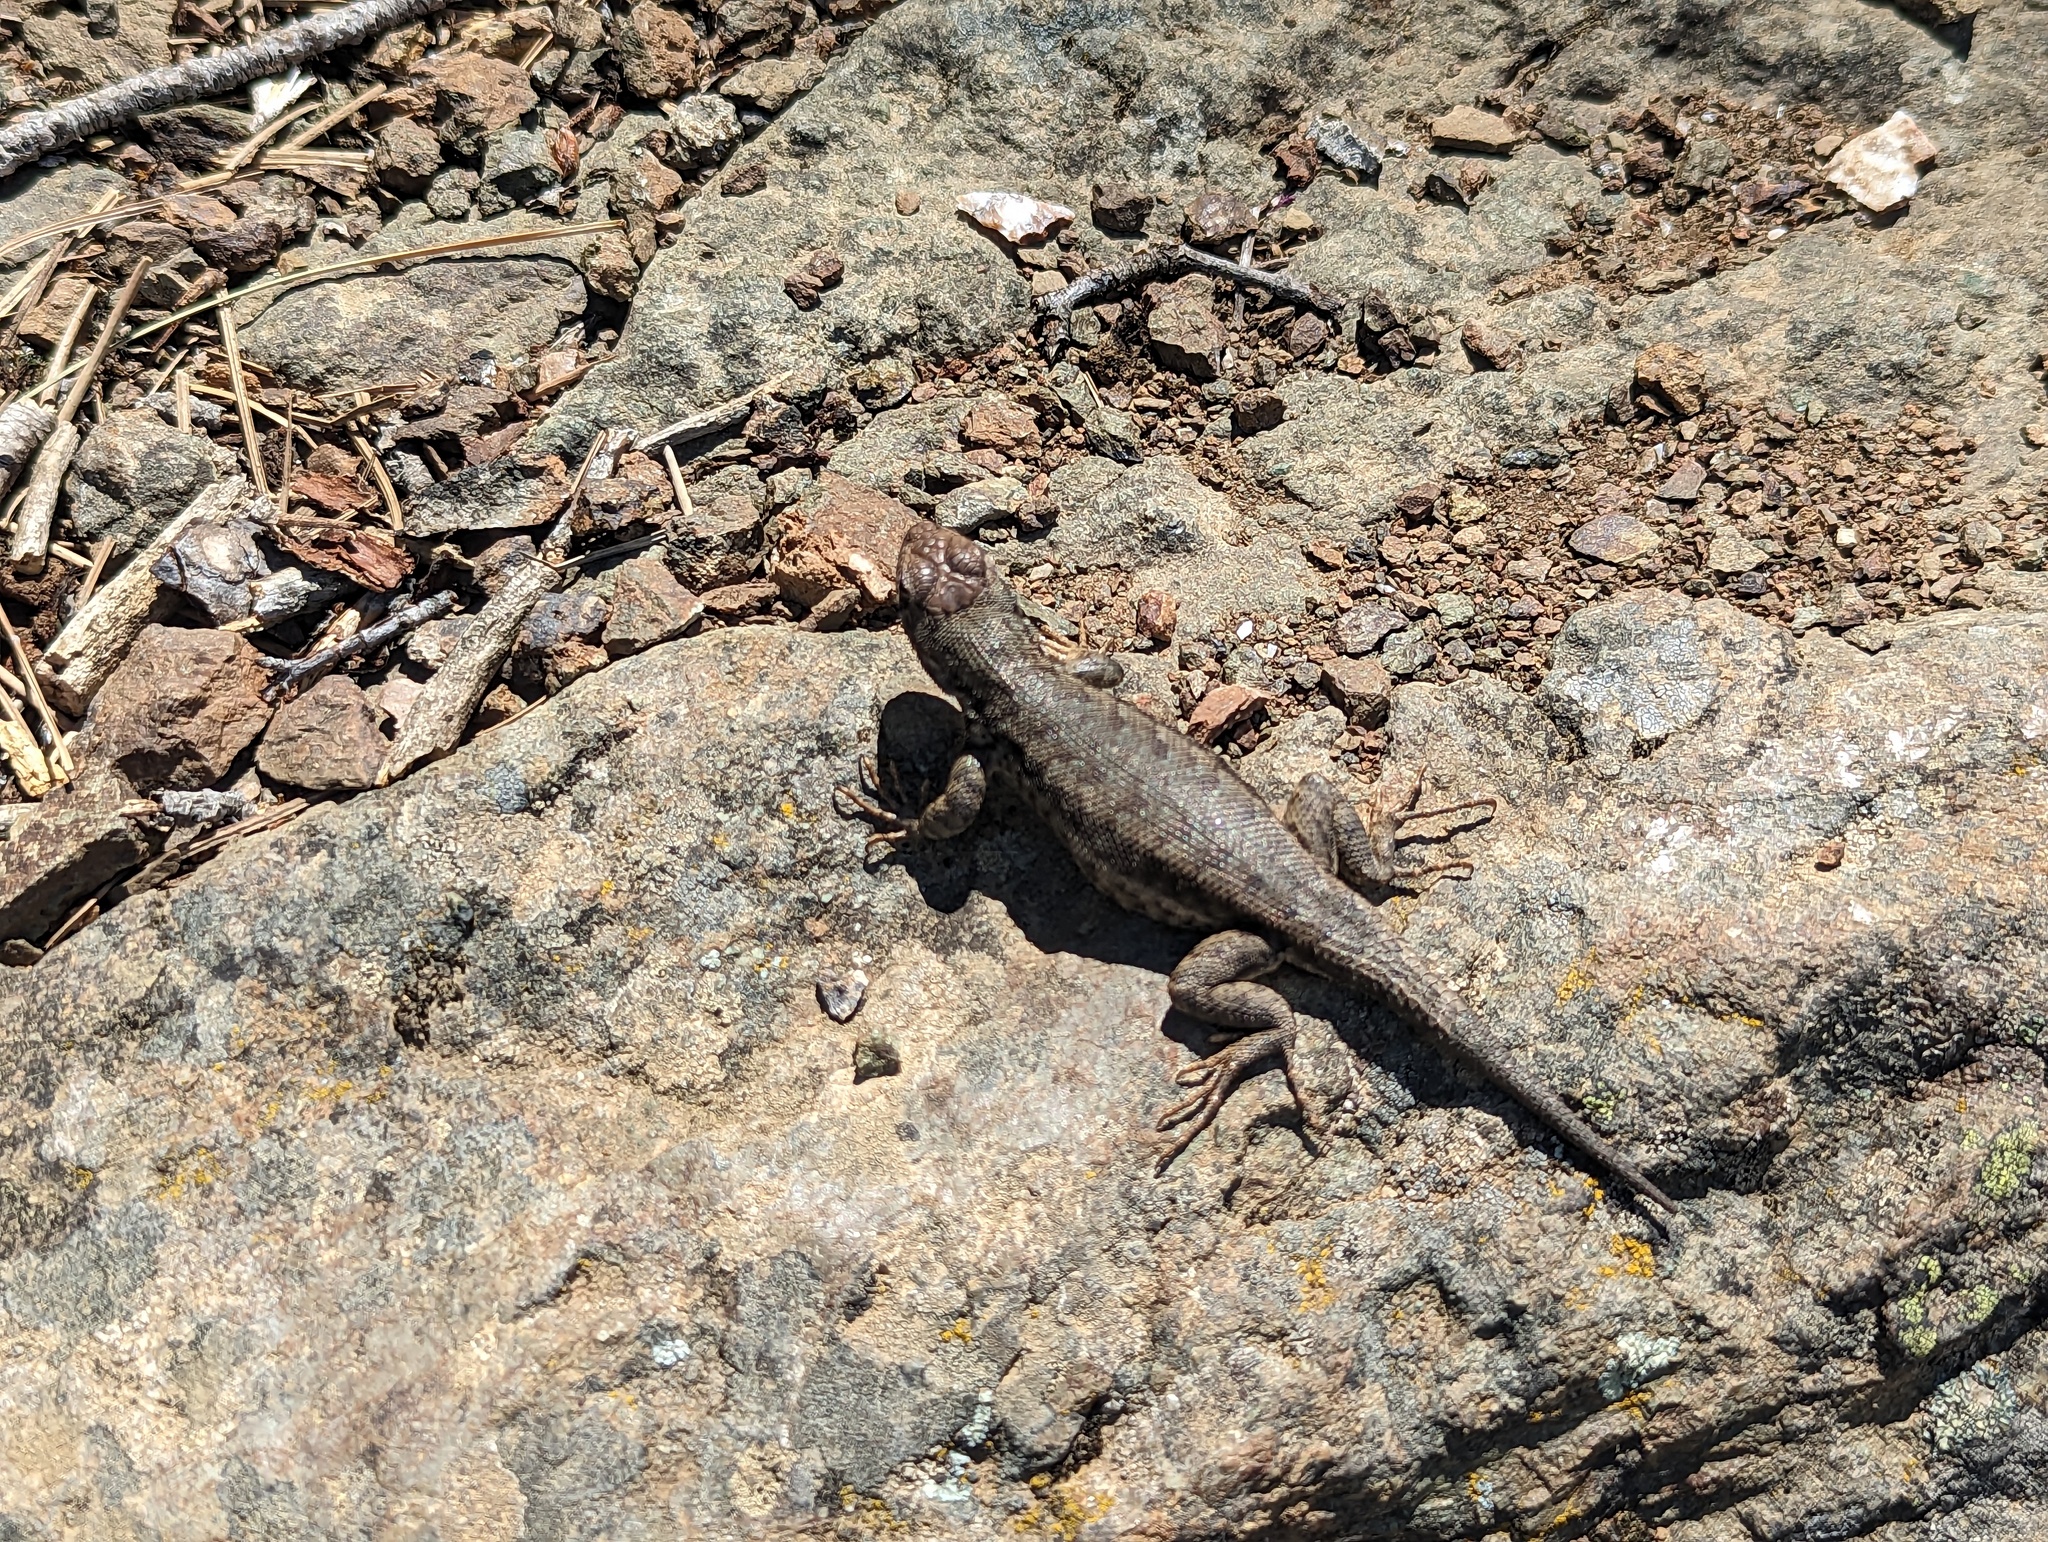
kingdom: Animalia
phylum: Chordata
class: Squamata
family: Phrynosomatidae
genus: Sceloporus
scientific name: Sceloporus graciosus
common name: Sagebrush lizard
